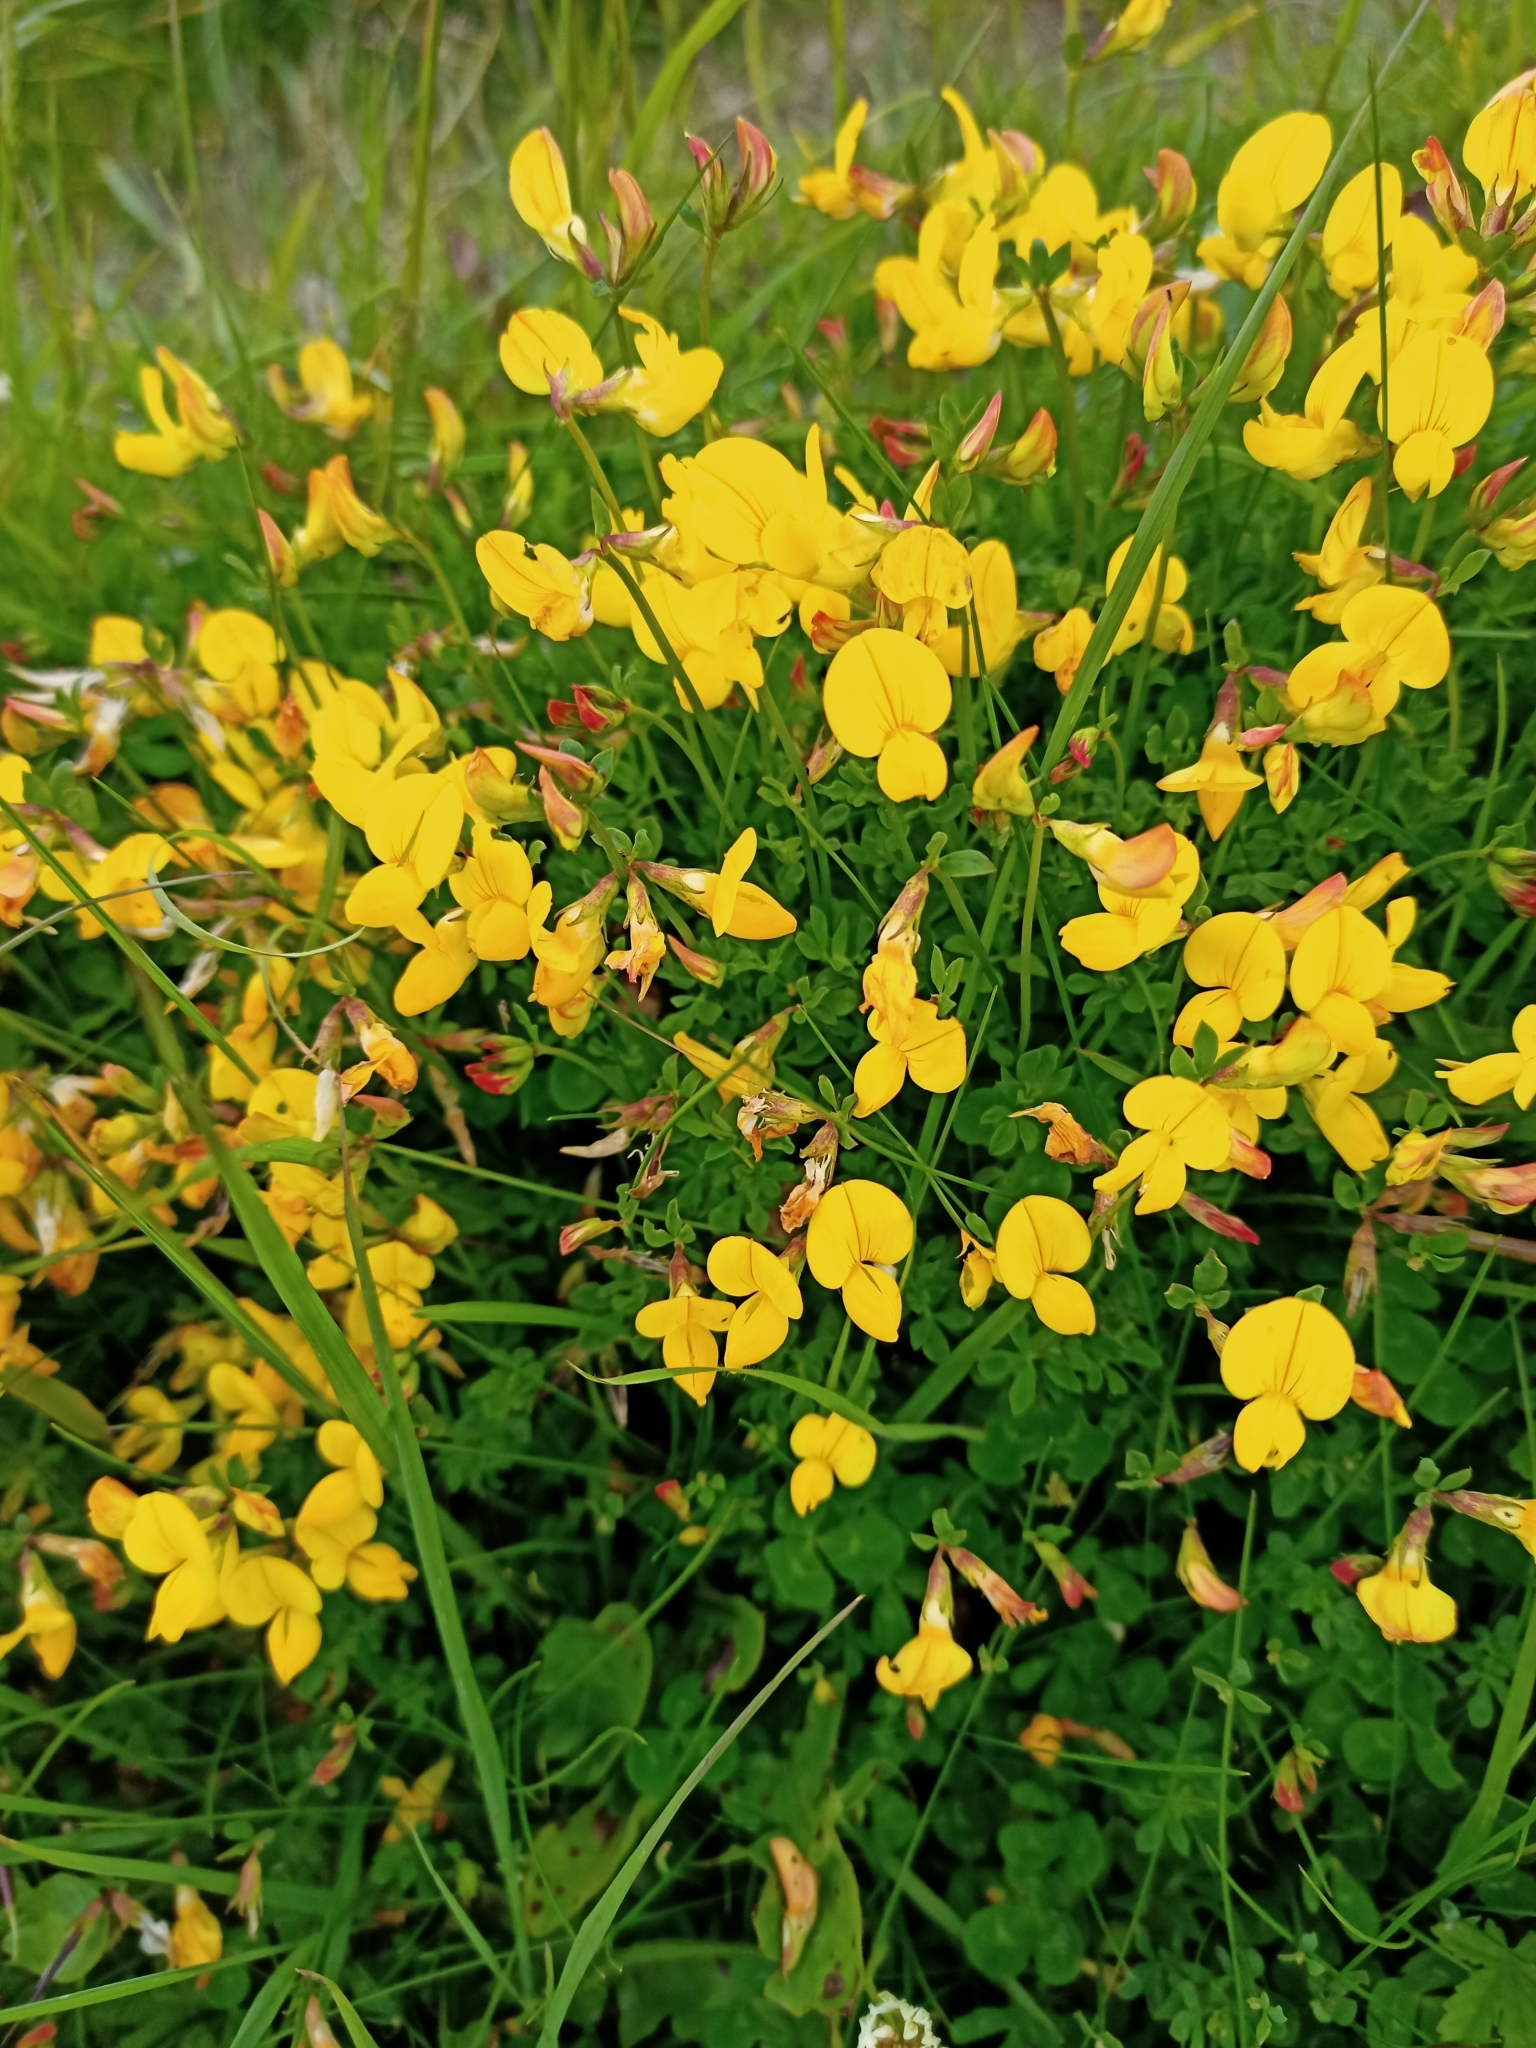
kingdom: Plantae
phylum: Tracheophyta
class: Magnoliopsida
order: Fabales
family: Fabaceae
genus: Lotus
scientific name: Lotus corniculatus
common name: Common bird's-foot-trefoil
